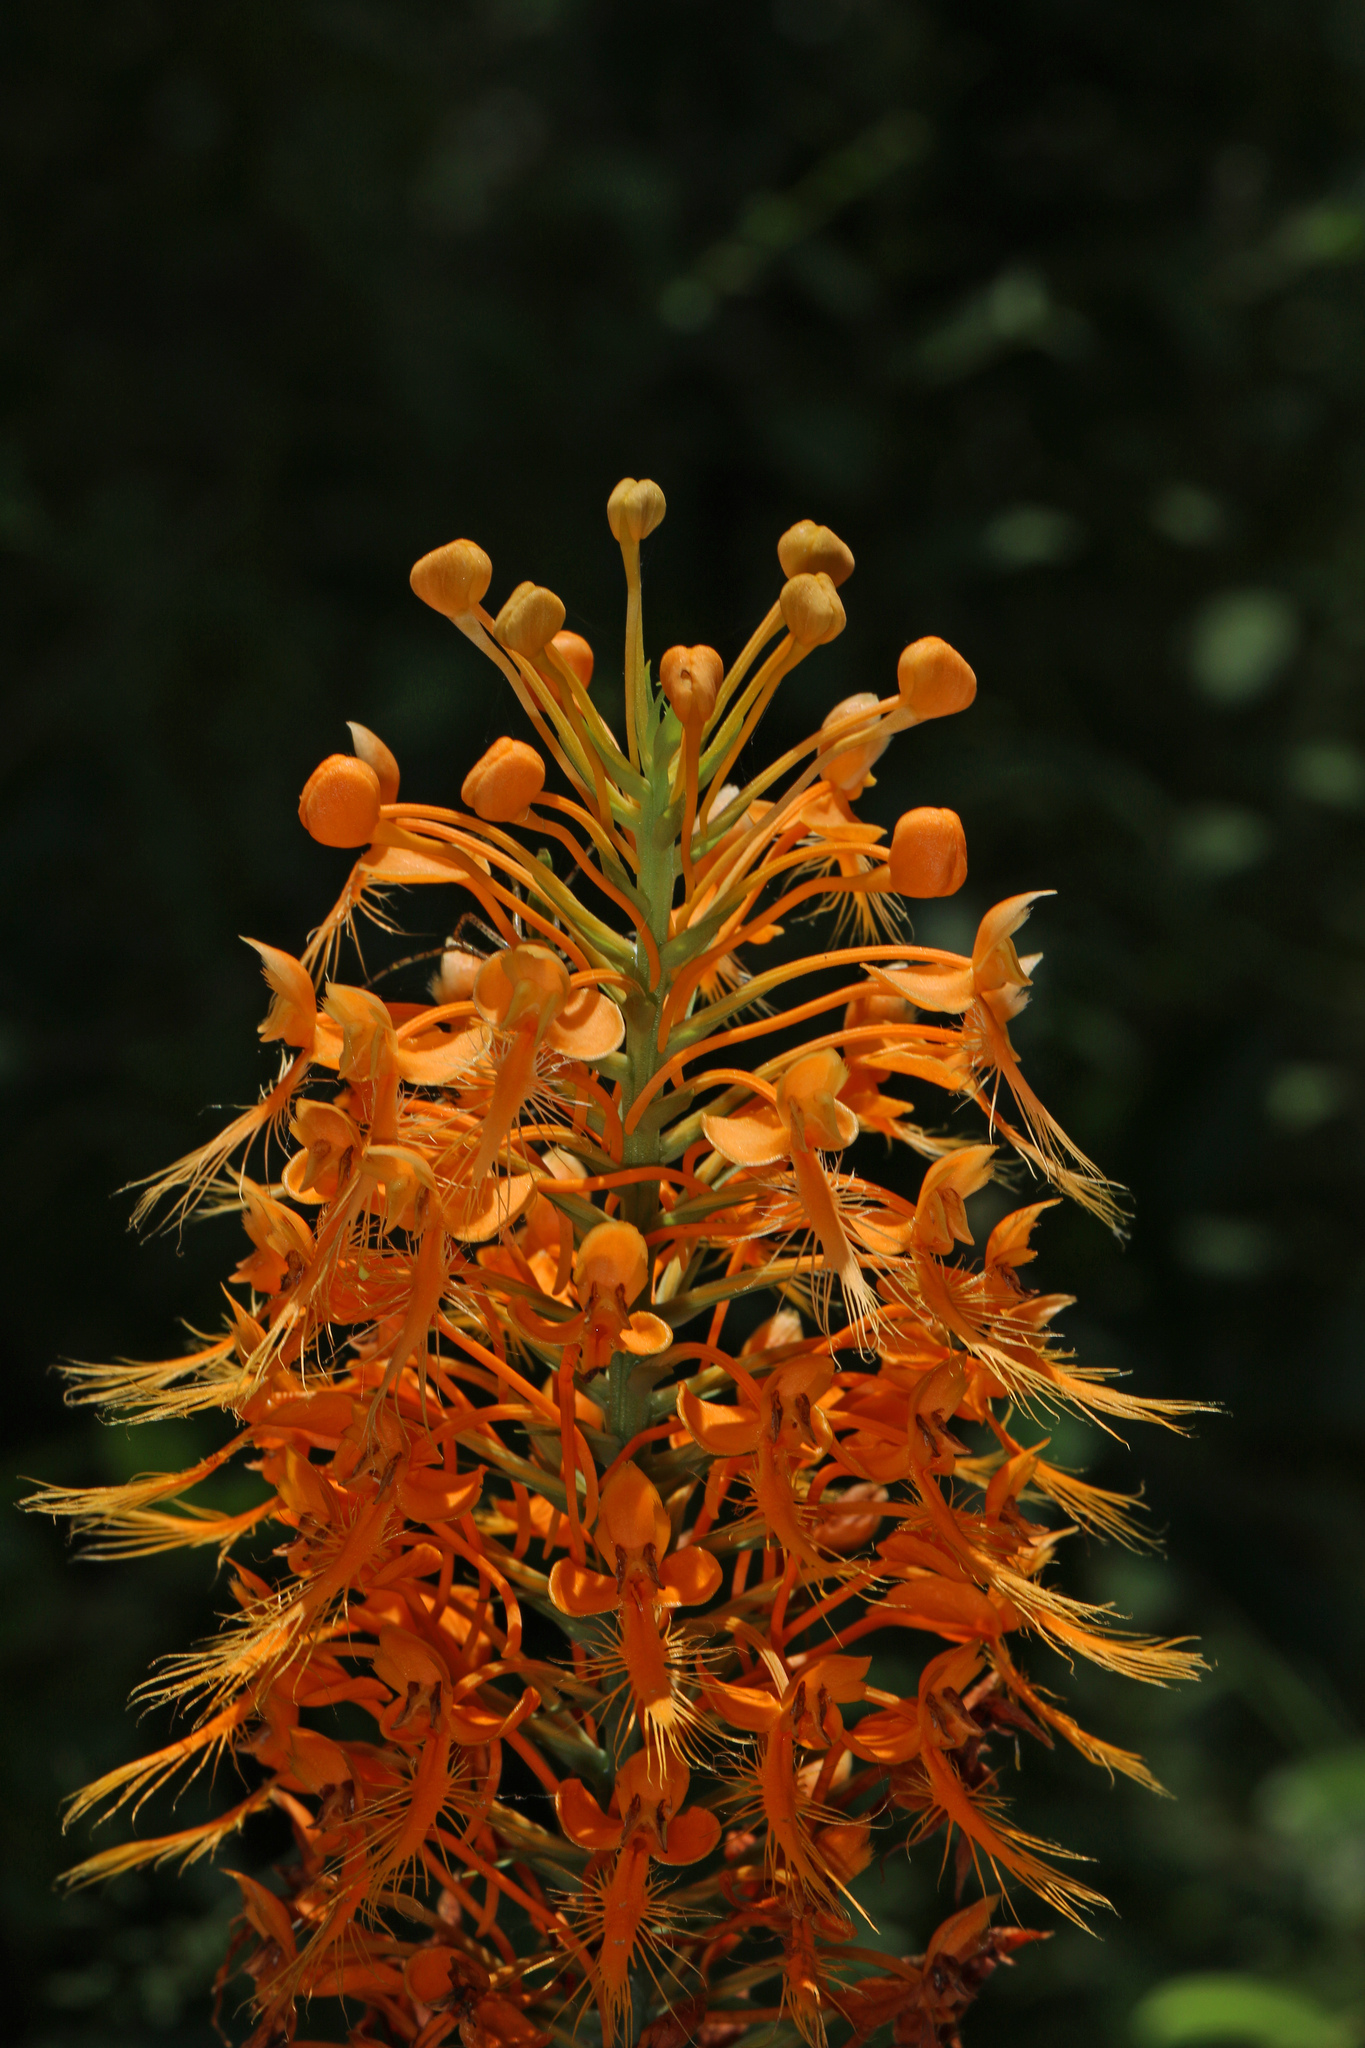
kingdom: Plantae
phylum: Tracheophyta
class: Liliopsida
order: Asparagales
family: Orchidaceae
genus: Platanthera
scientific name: Platanthera ciliaris
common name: Yellow fringed orchid
